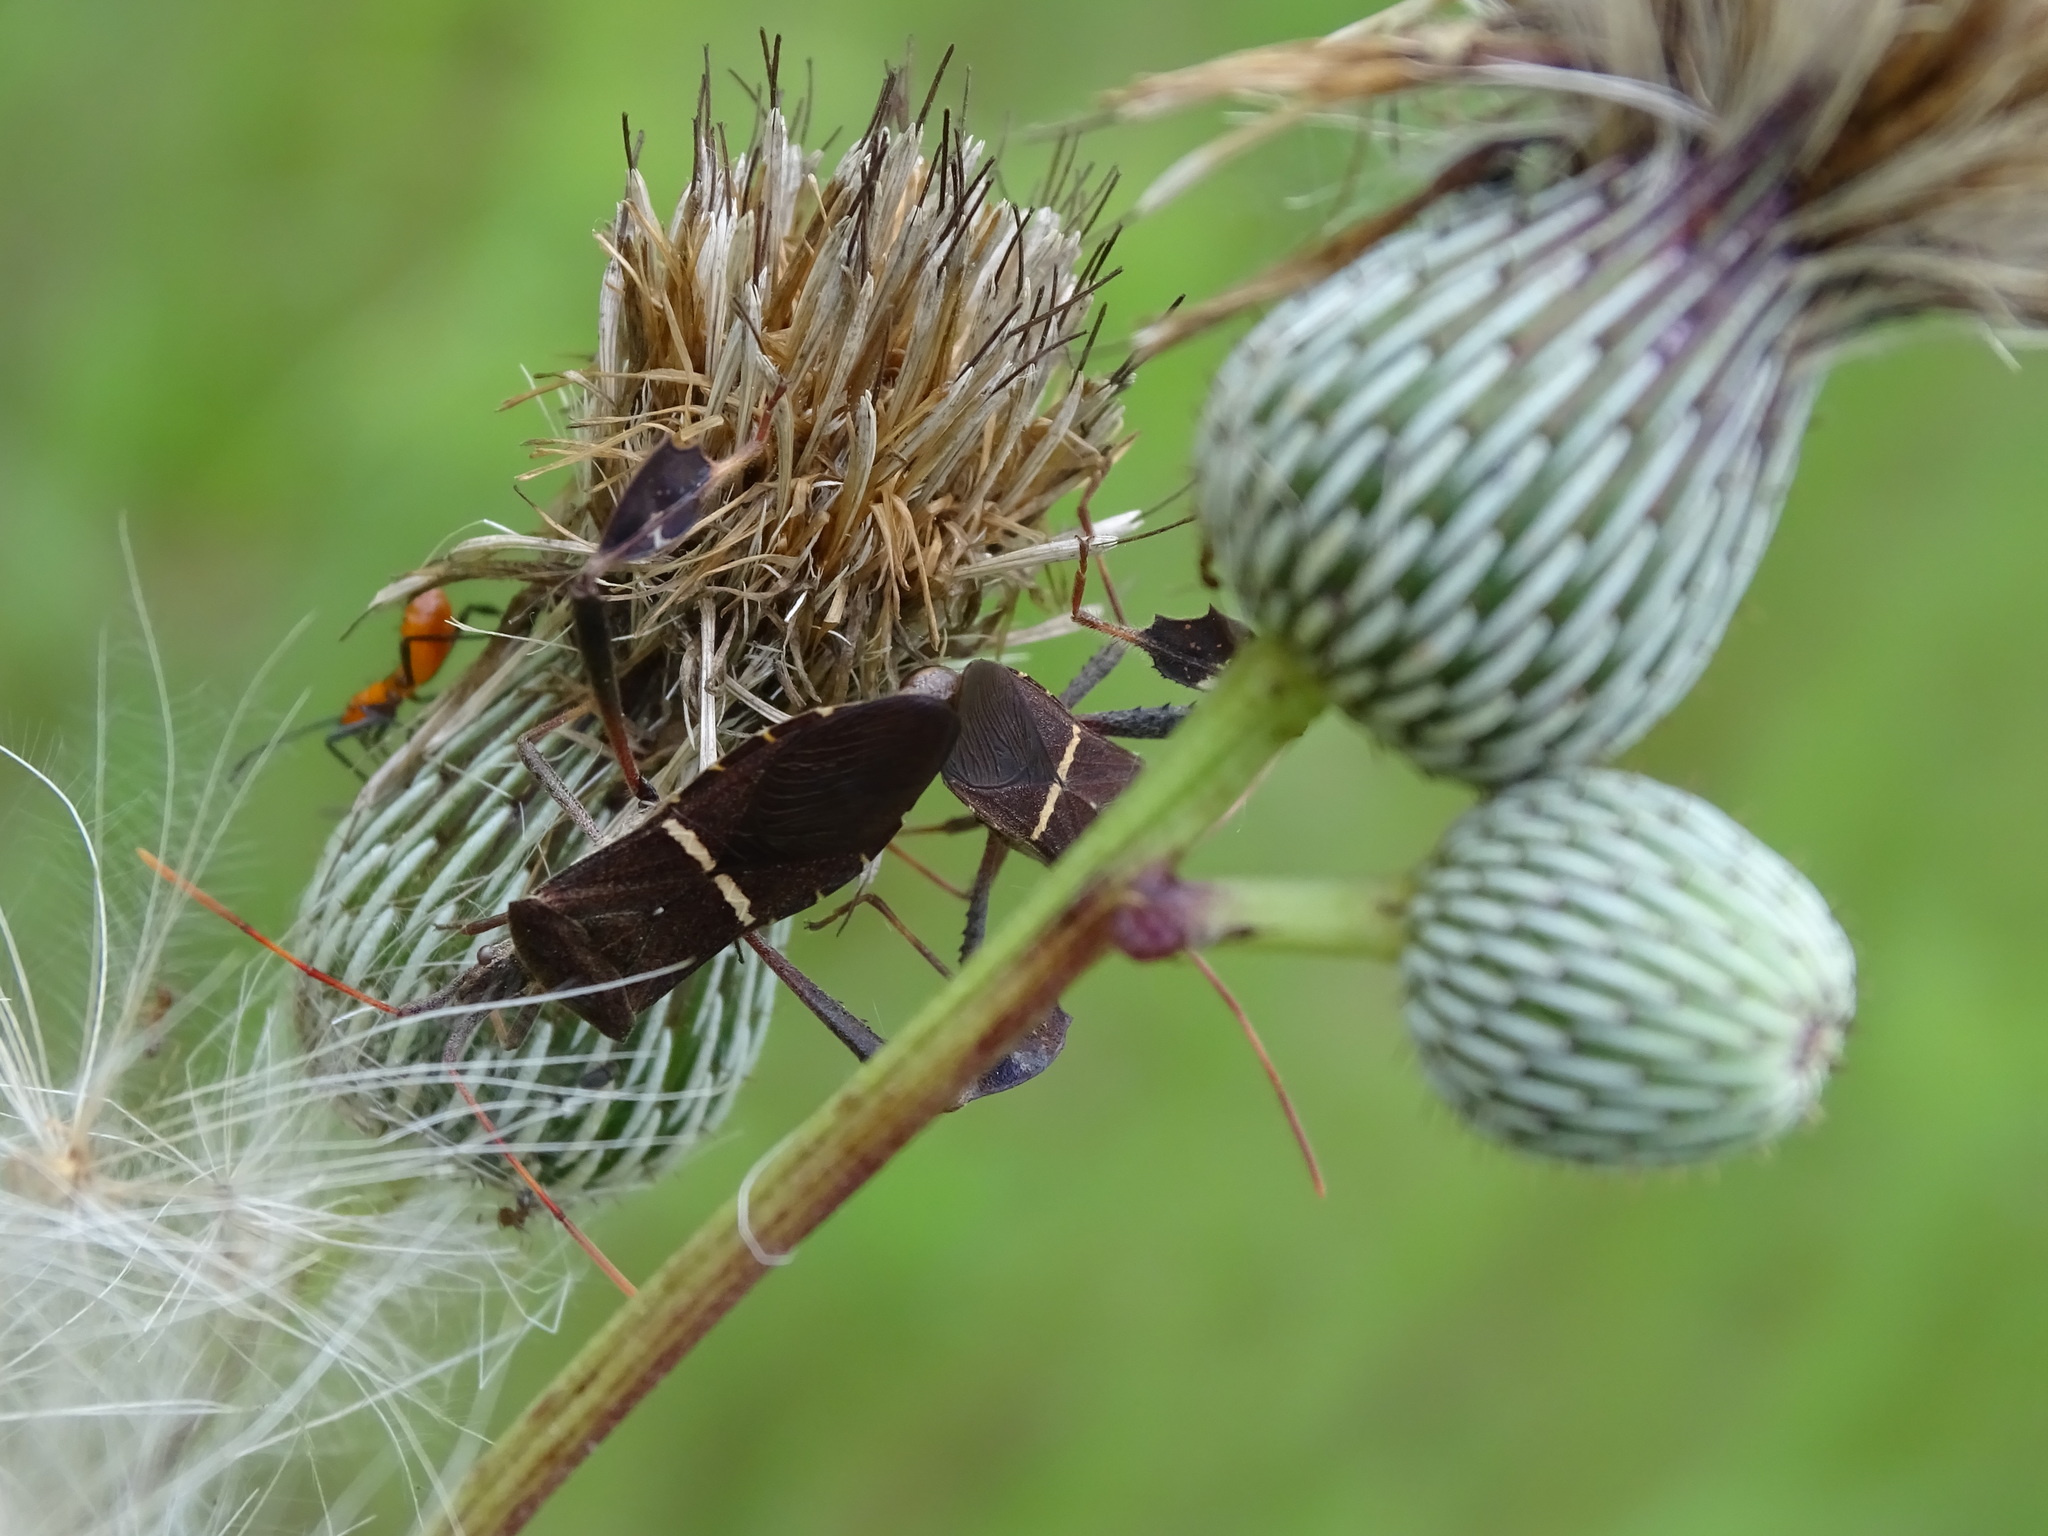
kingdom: Animalia
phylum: Arthropoda
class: Insecta
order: Hemiptera
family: Coreidae
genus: Leptoglossus
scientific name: Leptoglossus phyllopus
